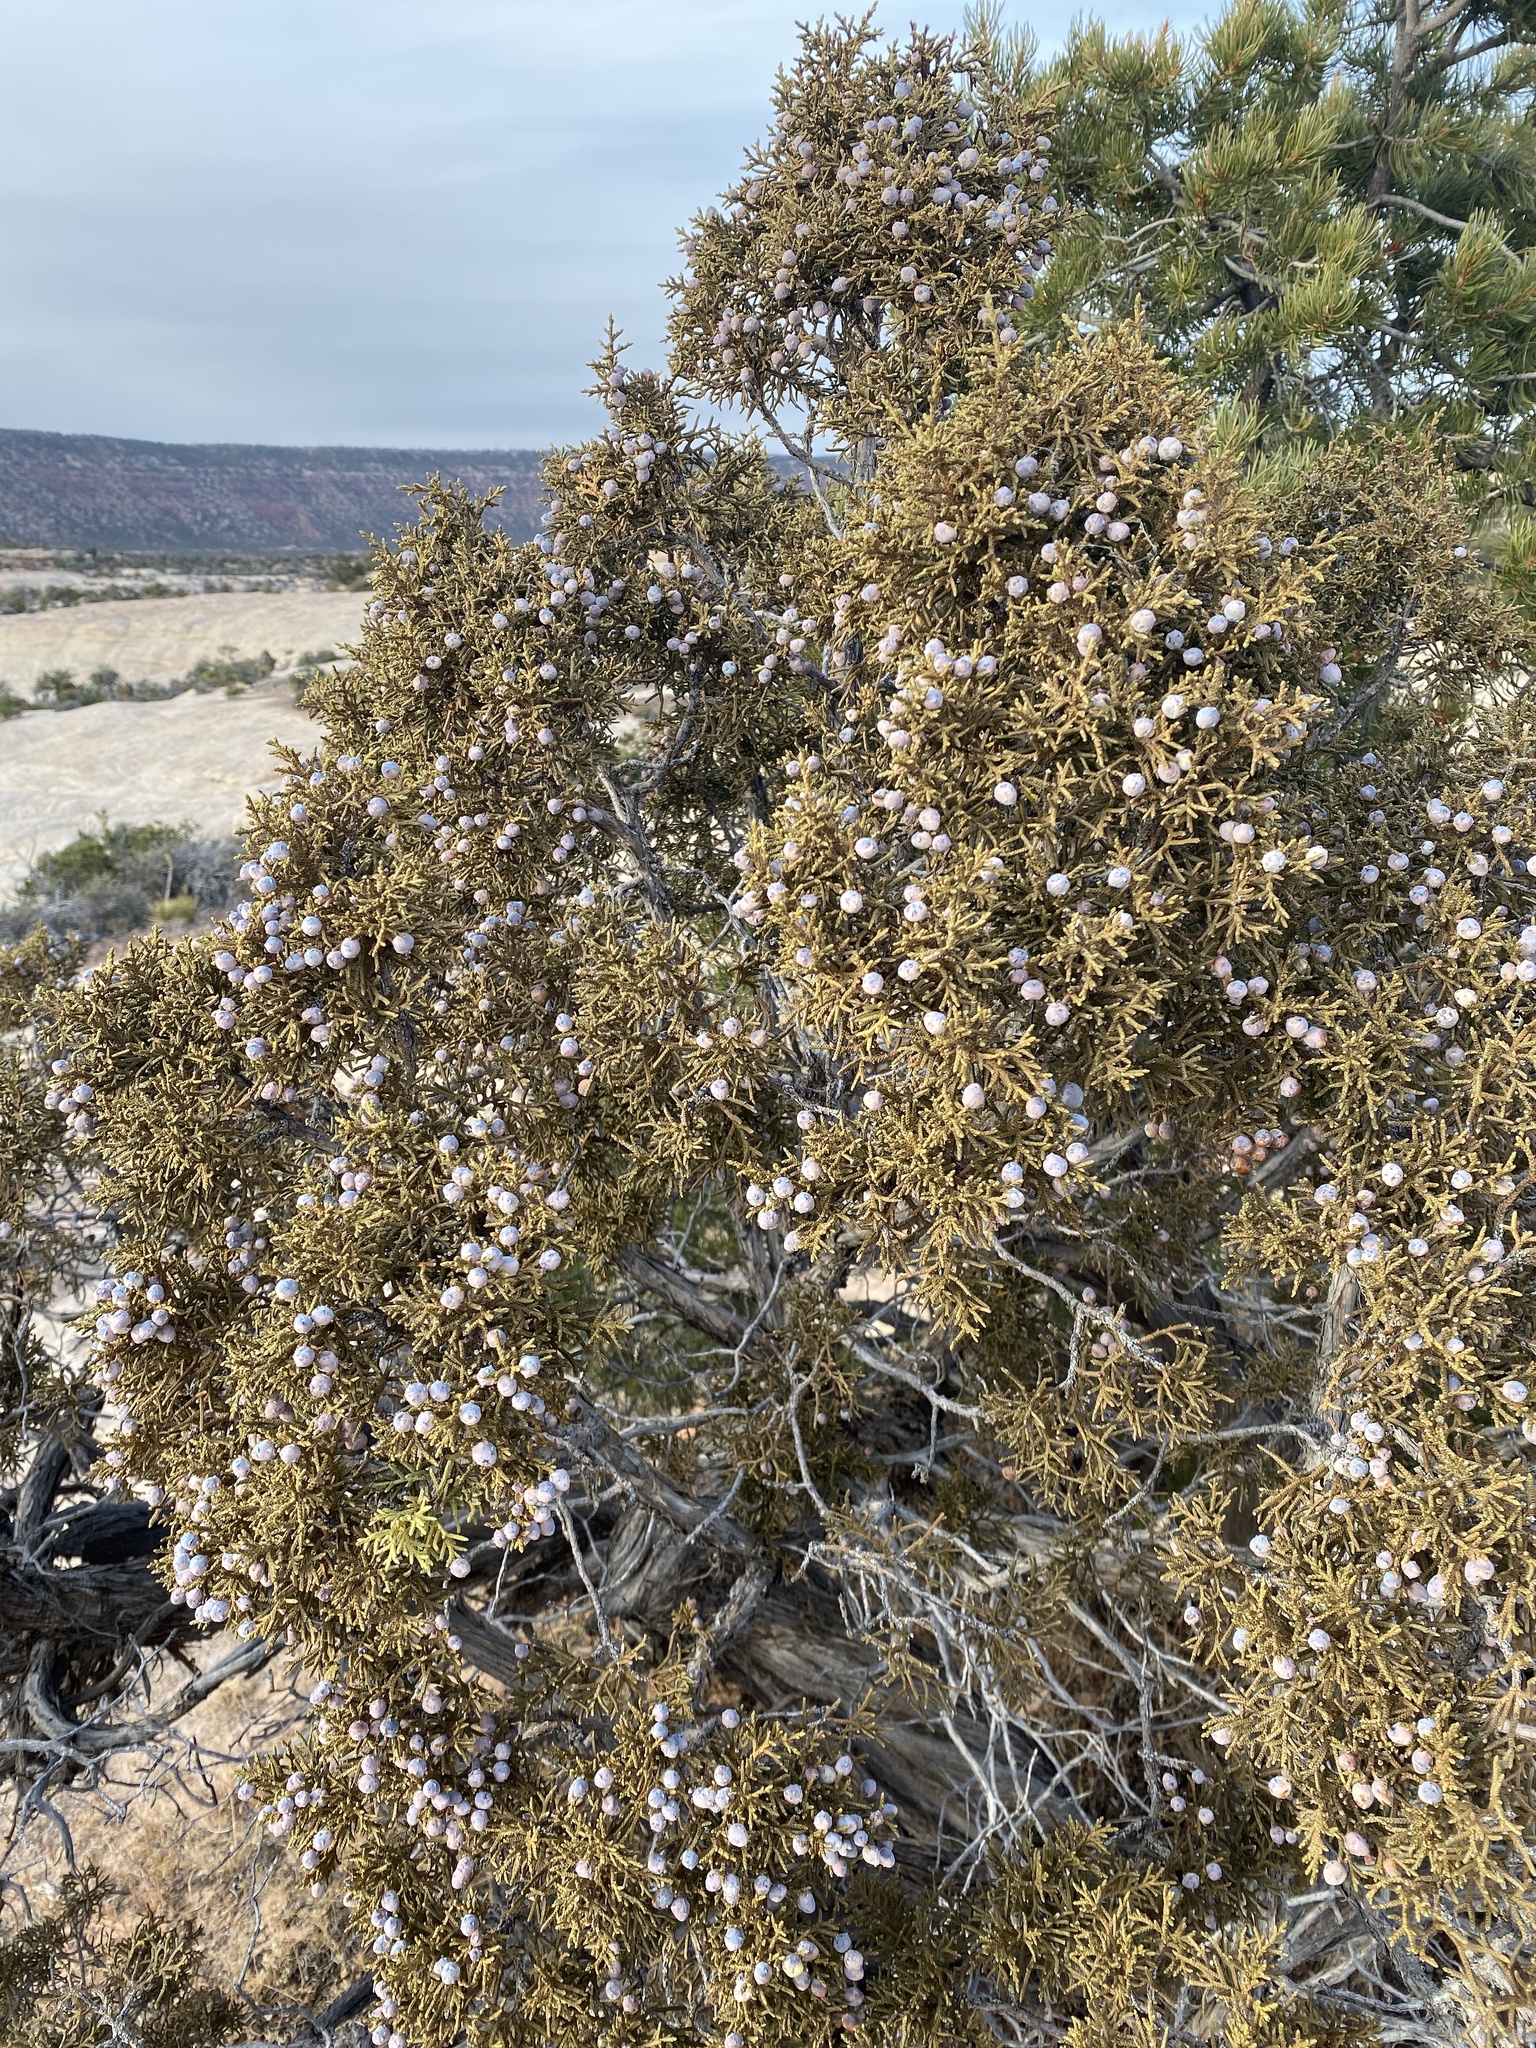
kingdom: Plantae
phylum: Tracheophyta
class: Pinopsida
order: Pinales
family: Cupressaceae
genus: Juniperus
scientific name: Juniperus osteosperma
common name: Utah juniper
